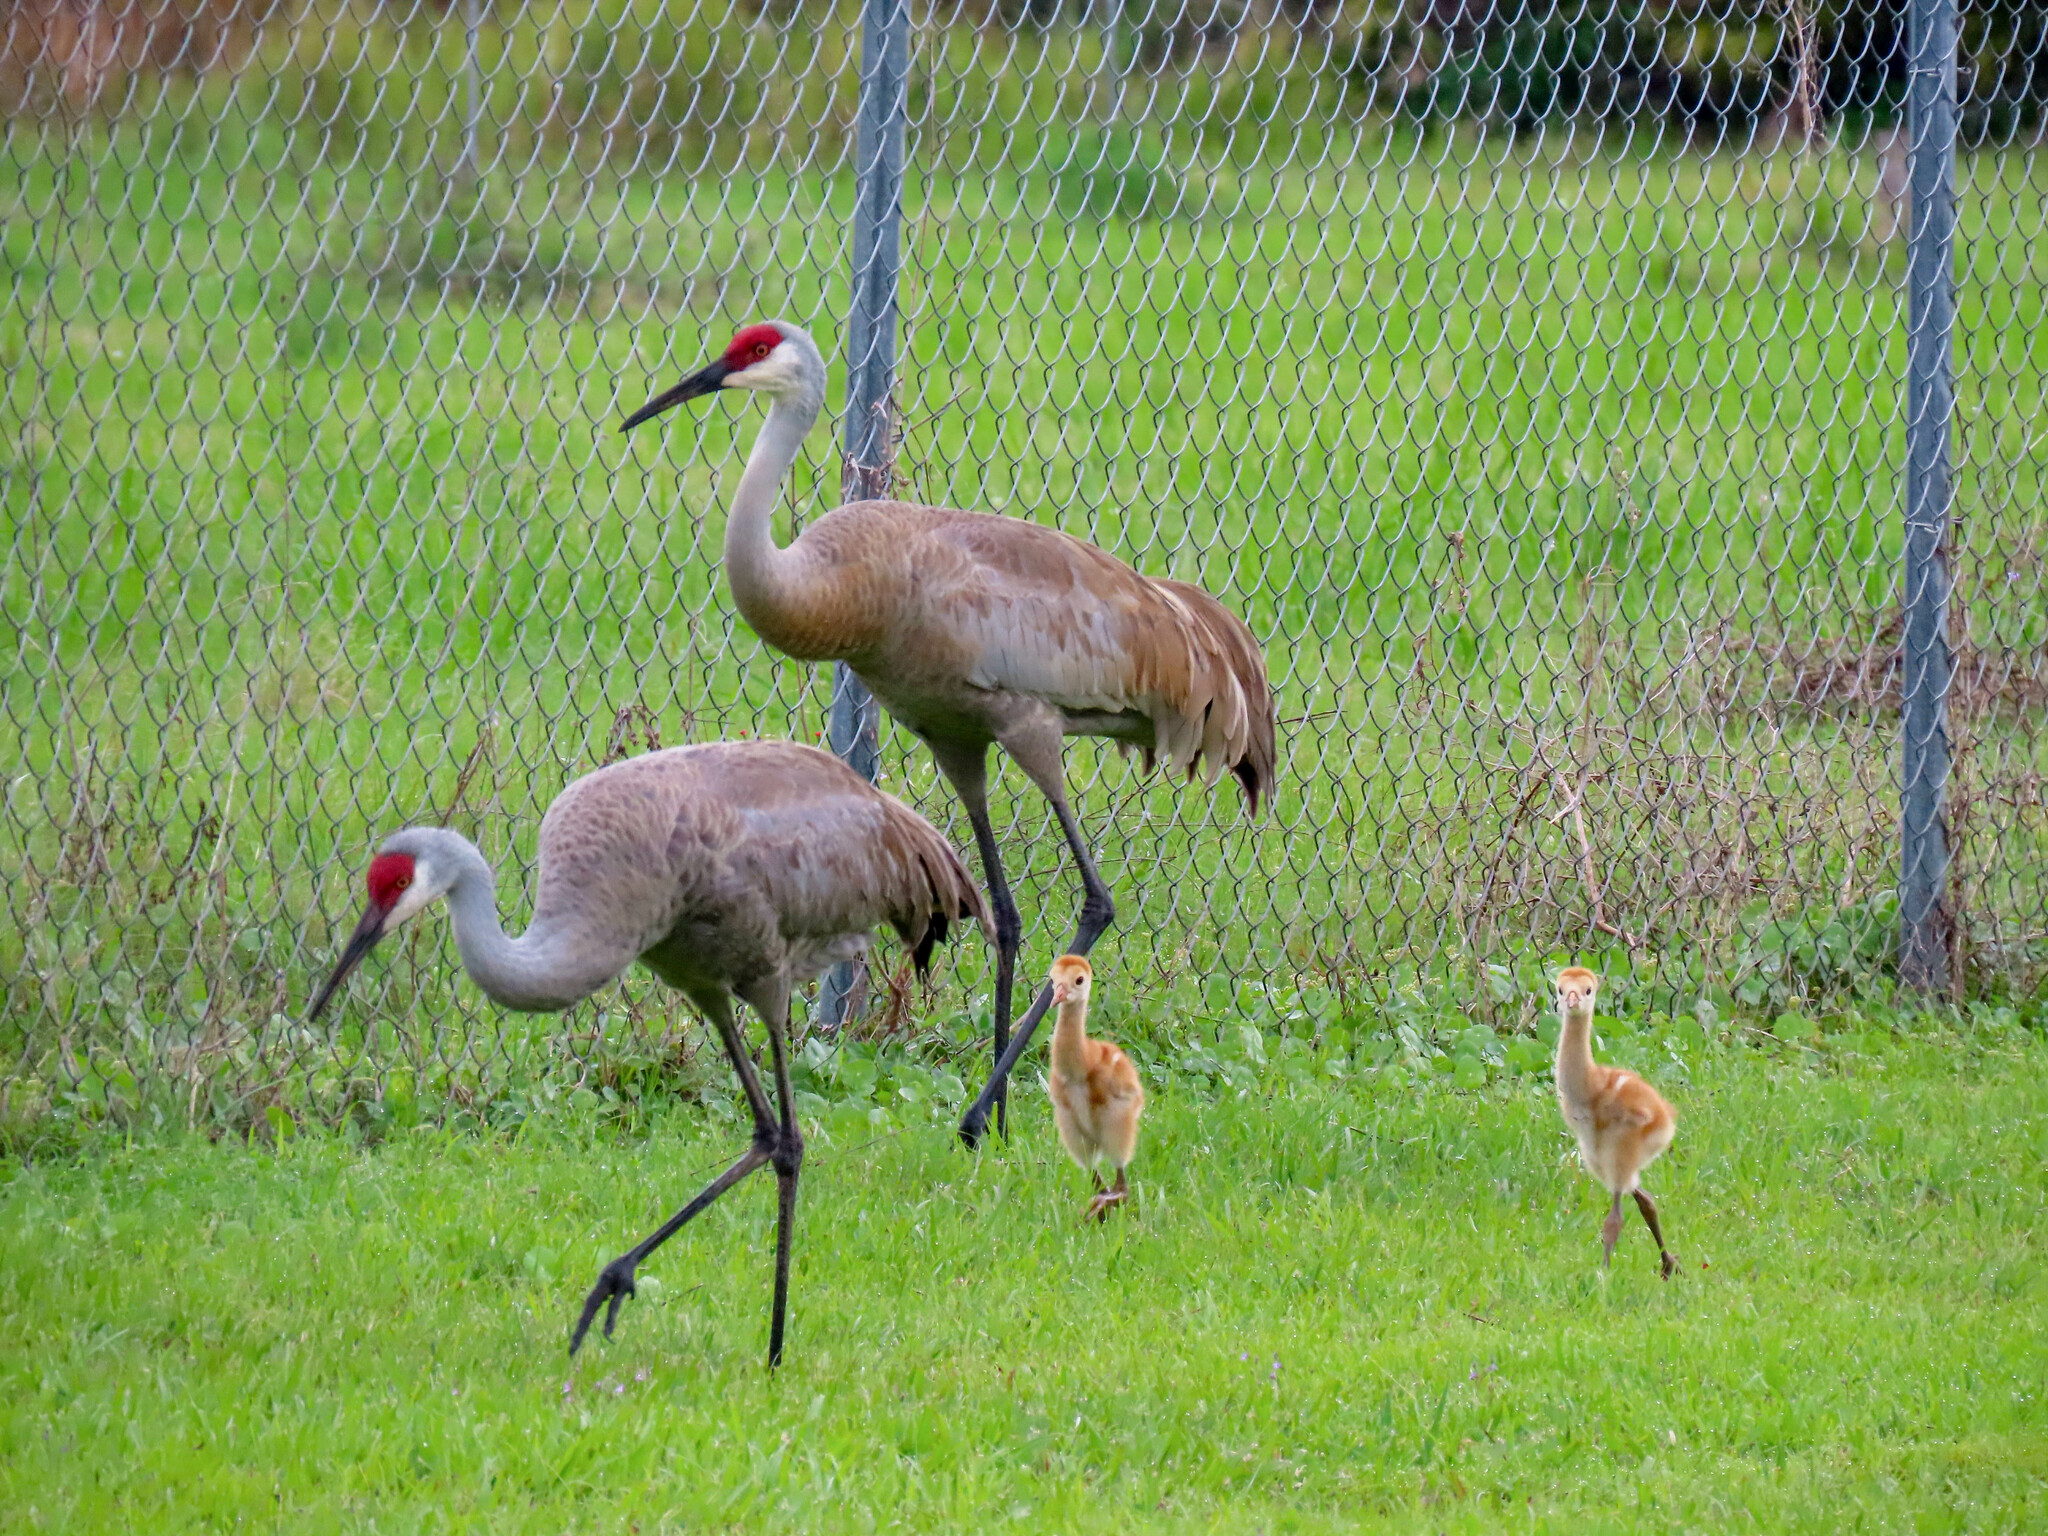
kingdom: Animalia
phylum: Chordata
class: Aves
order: Gruiformes
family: Gruidae
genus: Grus
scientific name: Grus canadensis
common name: Sandhill crane
